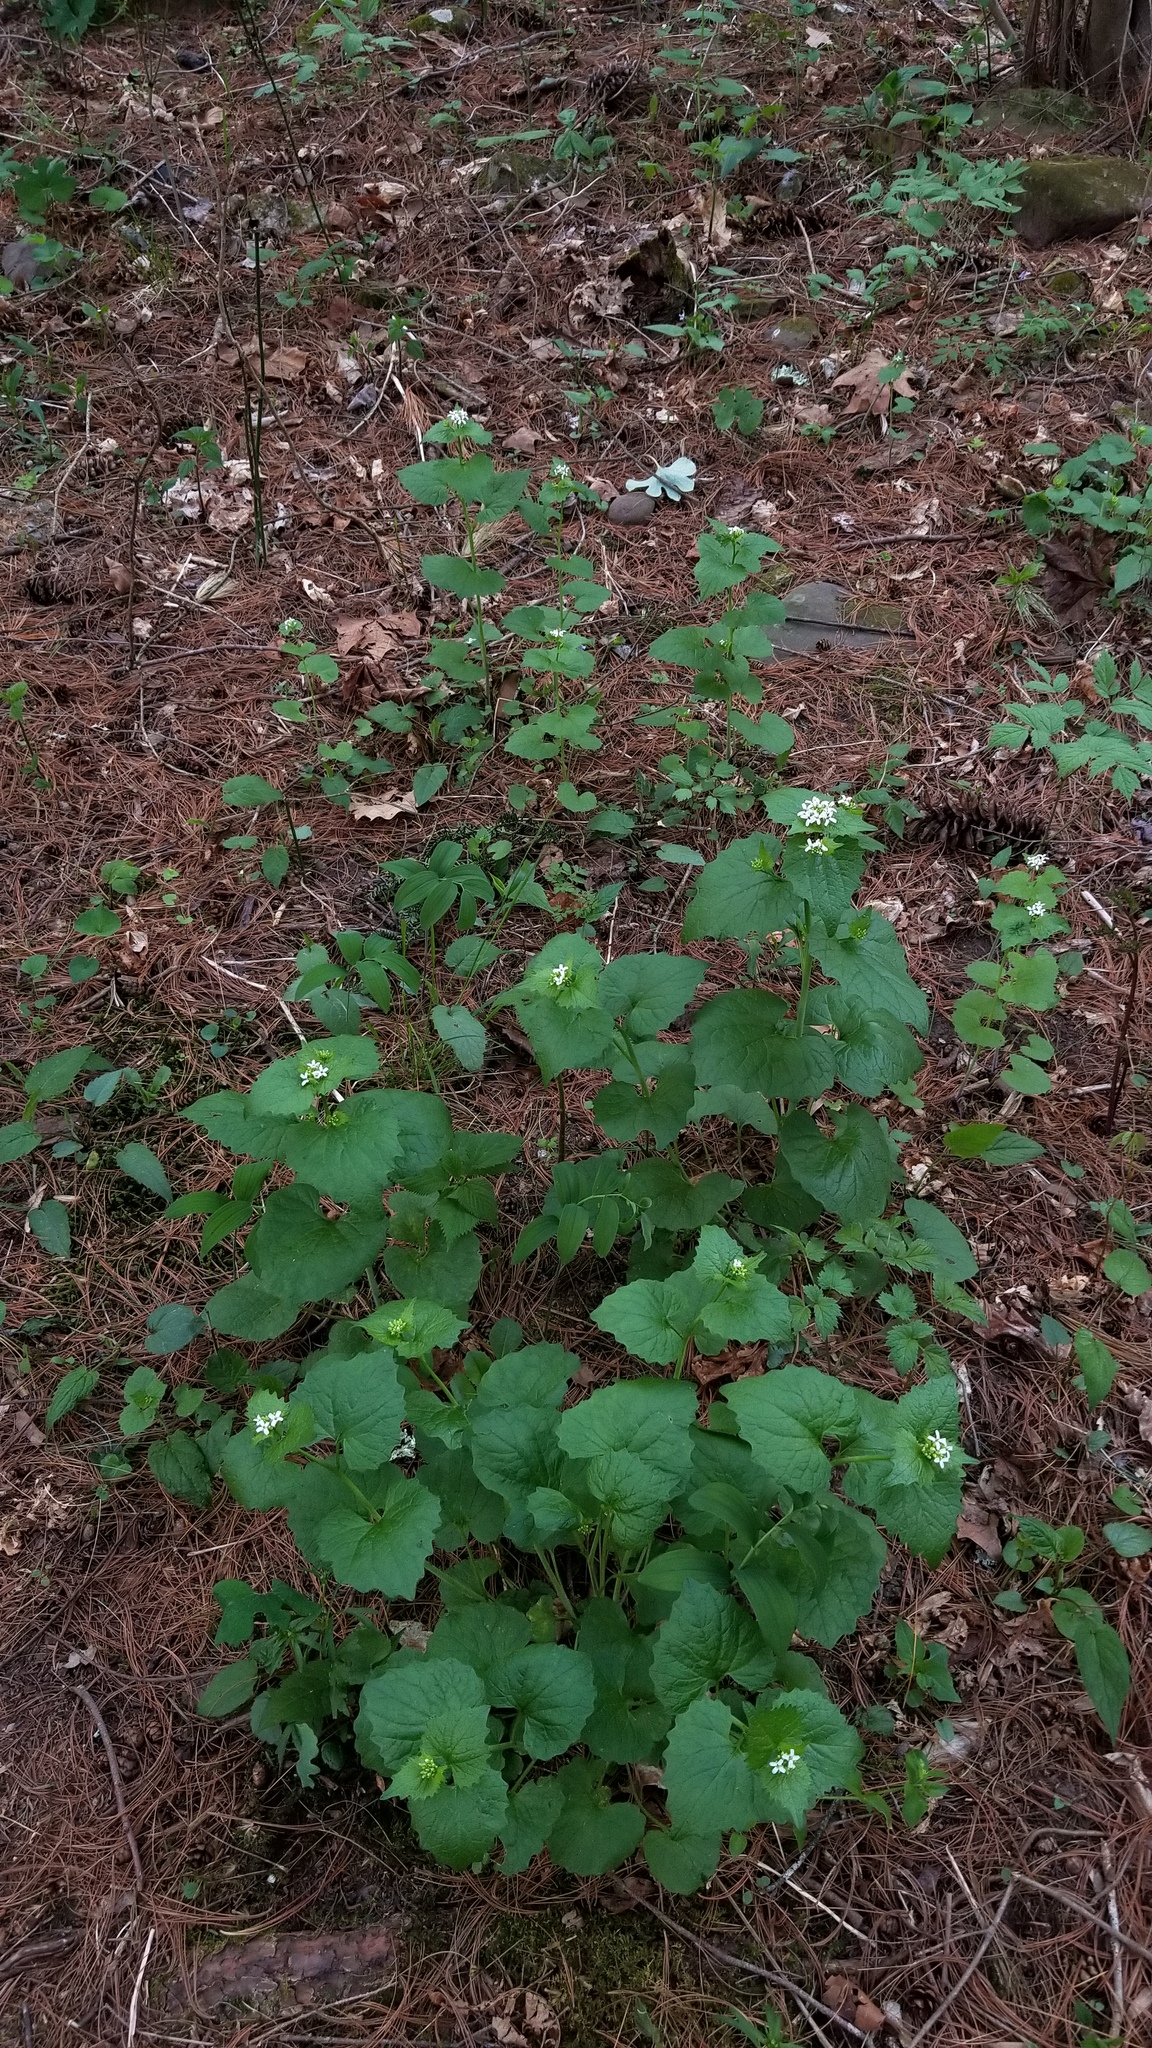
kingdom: Plantae
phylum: Tracheophyta
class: Magnoliopsida
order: Brassicales
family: Brassicaceae
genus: Alliaria
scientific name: Alliaria petiolata
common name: Garlic mustard
